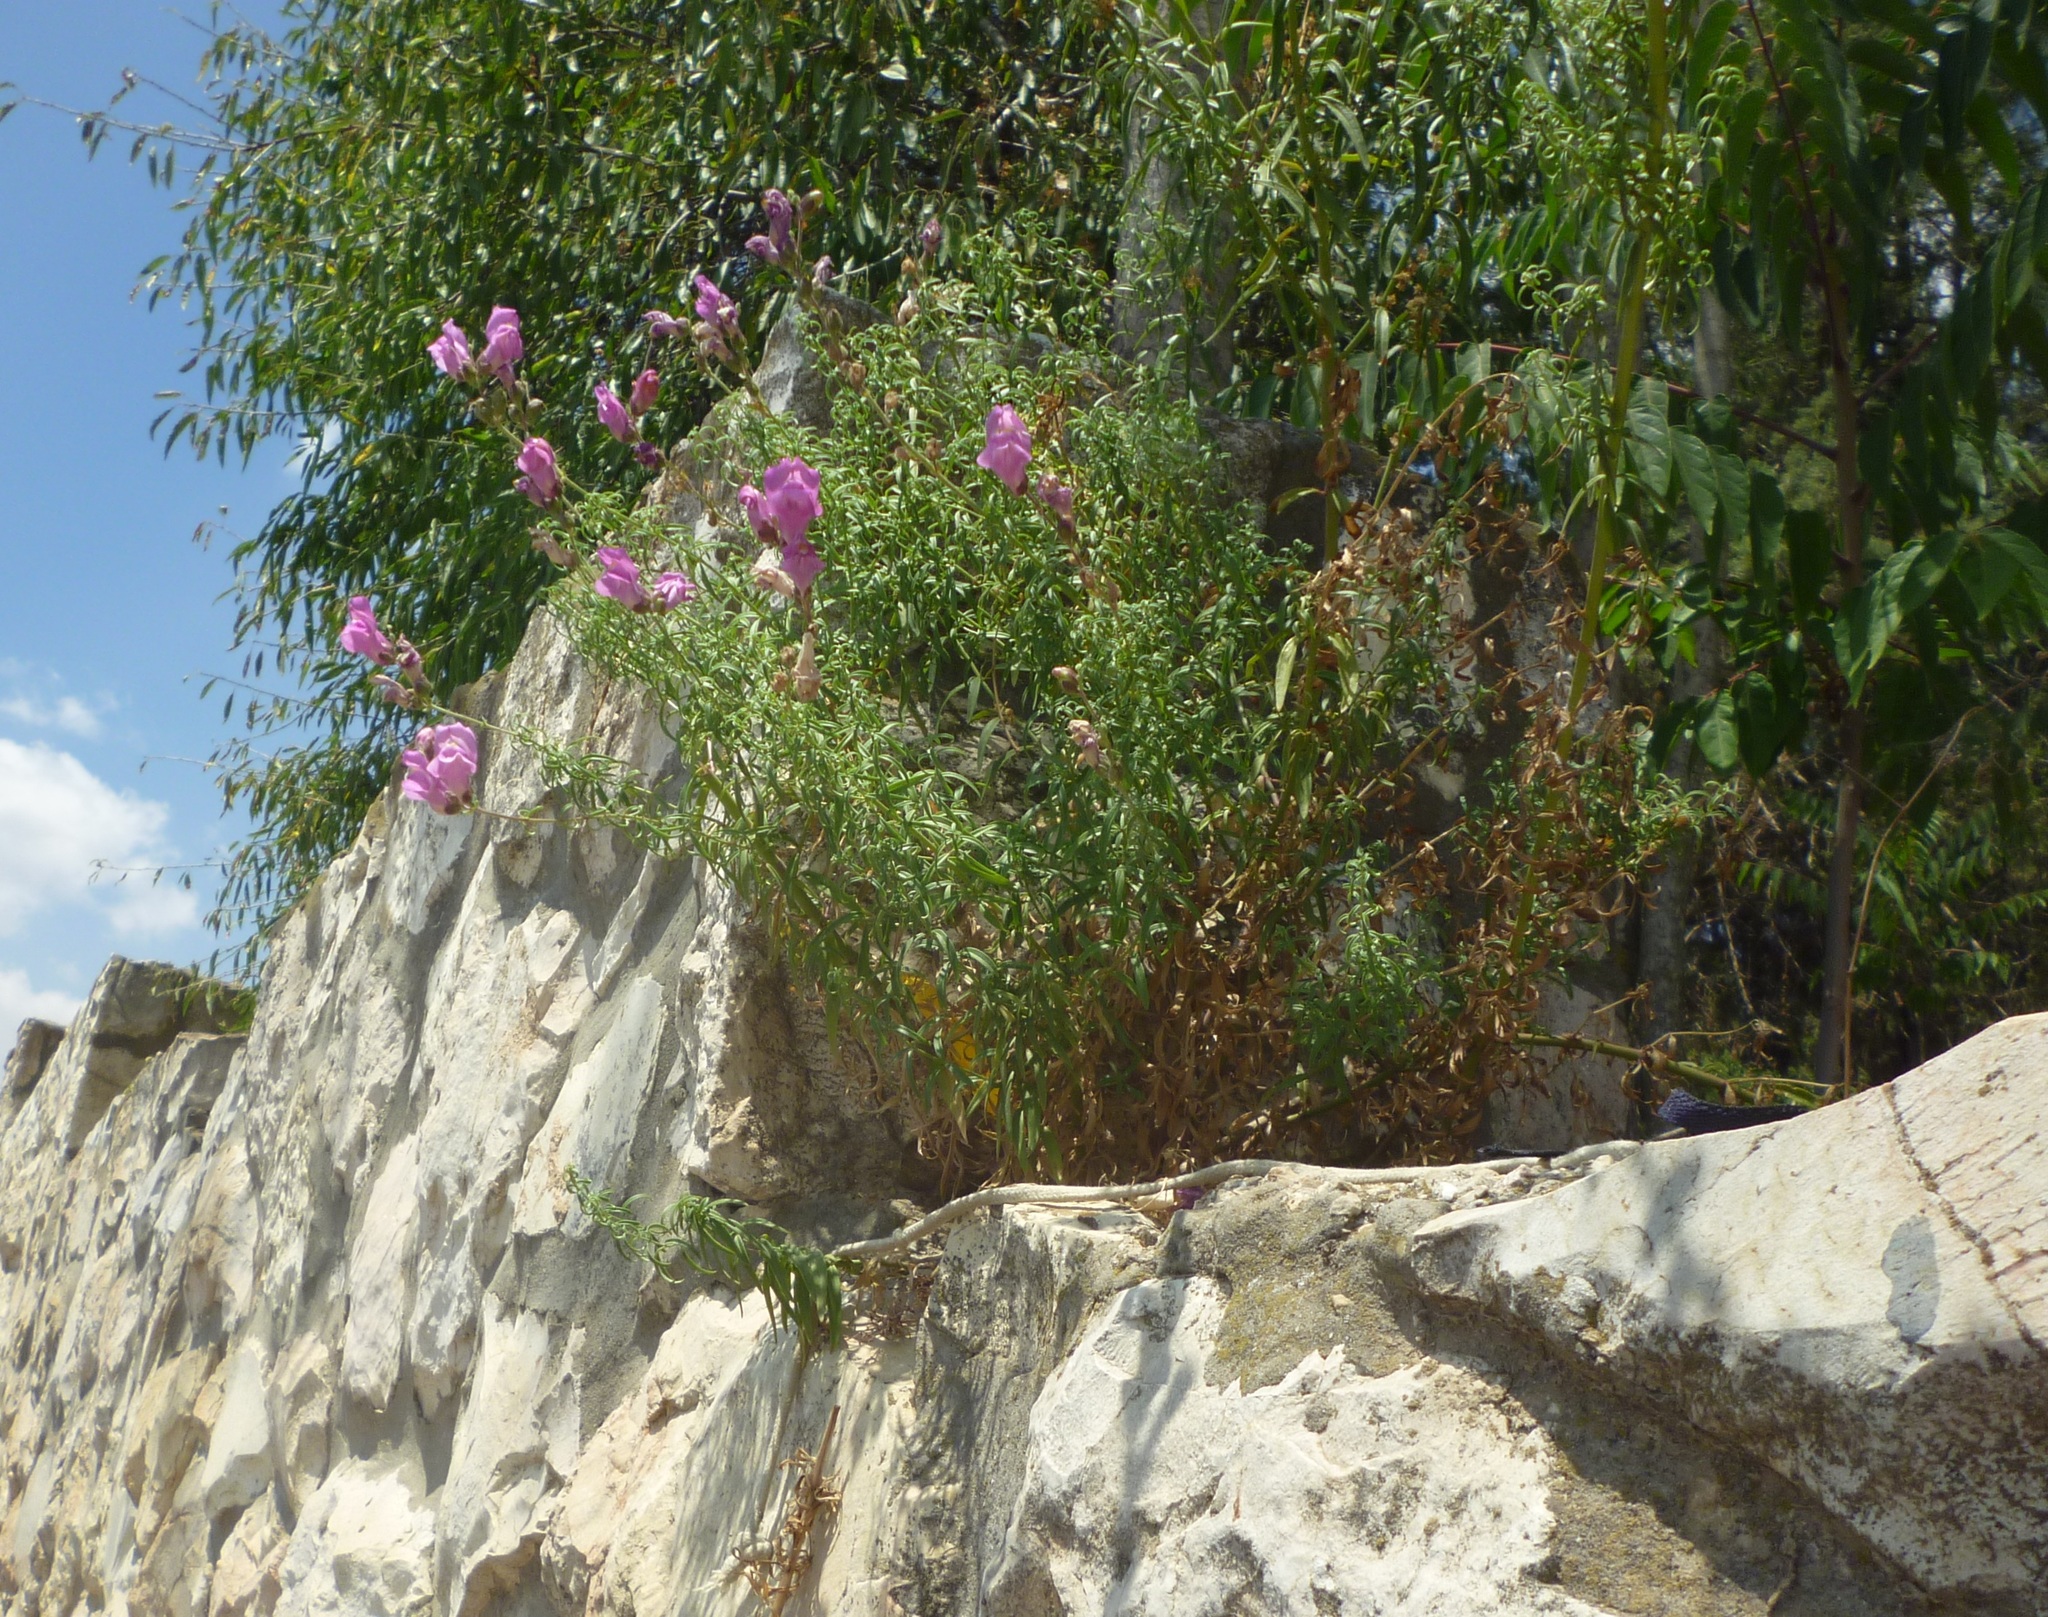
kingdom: Plantae
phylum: Tracheophyta
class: Magnoliopsida
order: Lamiales
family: Plantaginaceae
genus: Antirrhinum
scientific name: Antirrhinum majus
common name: Snapdragon
